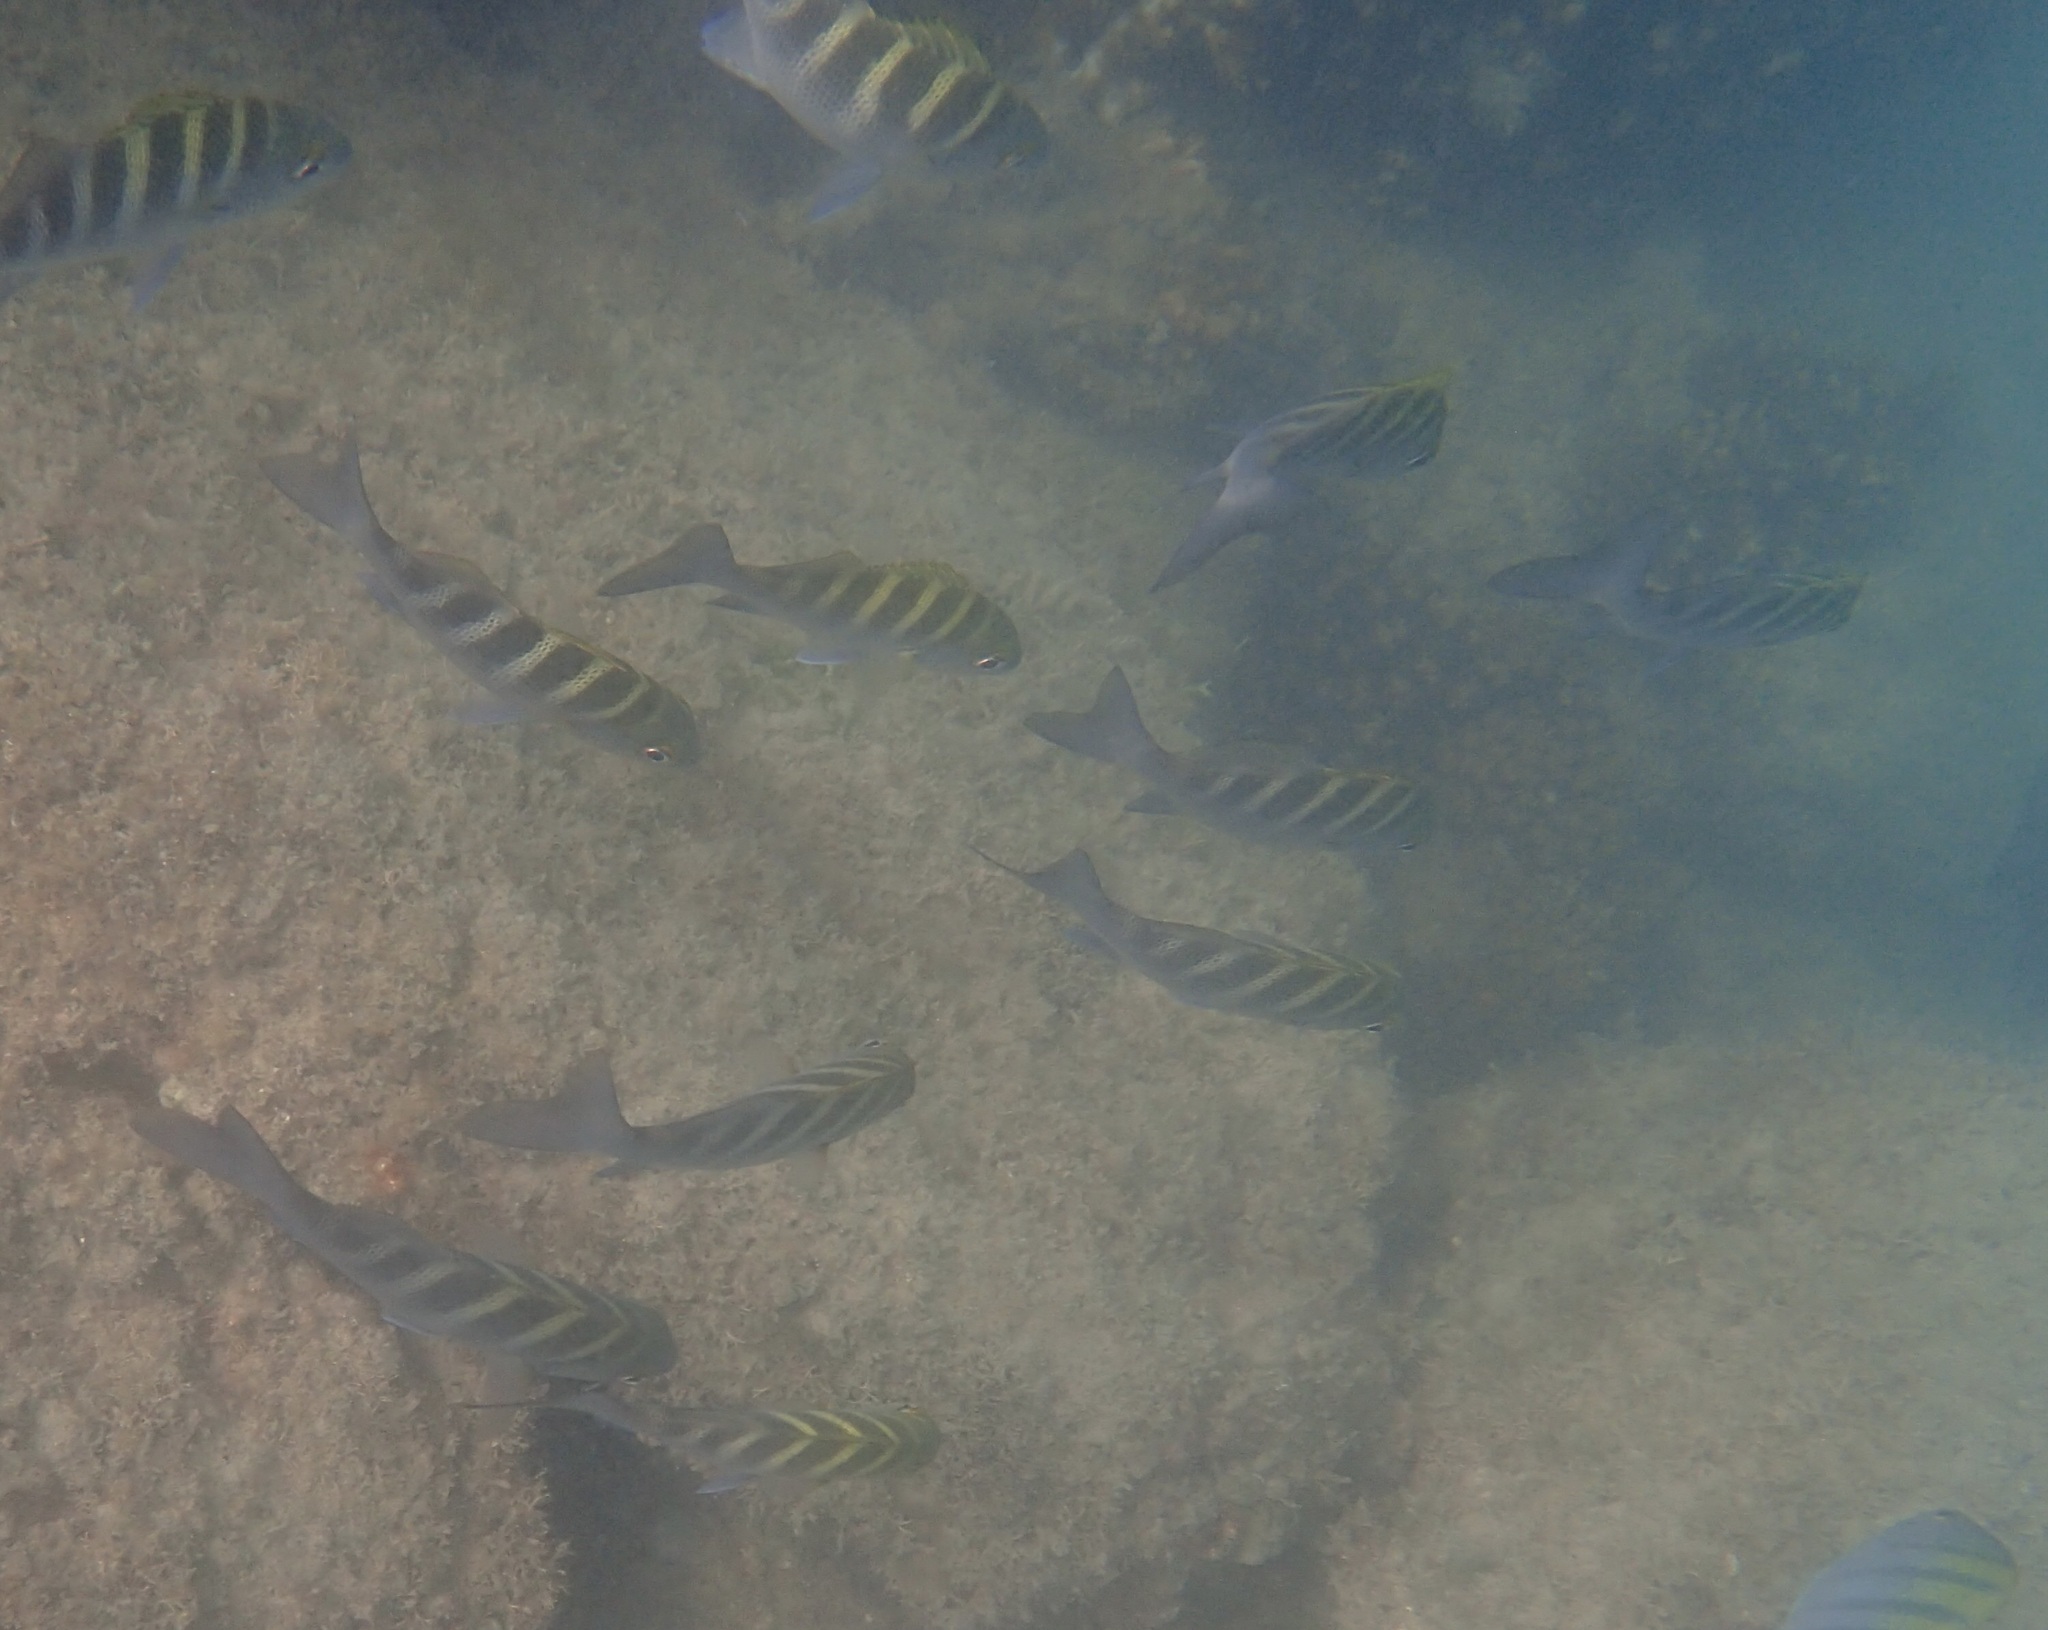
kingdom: Animalia
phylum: Chordata
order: Perciformes
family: Haemulidae
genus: Haemulon
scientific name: Haemulon sexfasciatum
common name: Graybar grunt
